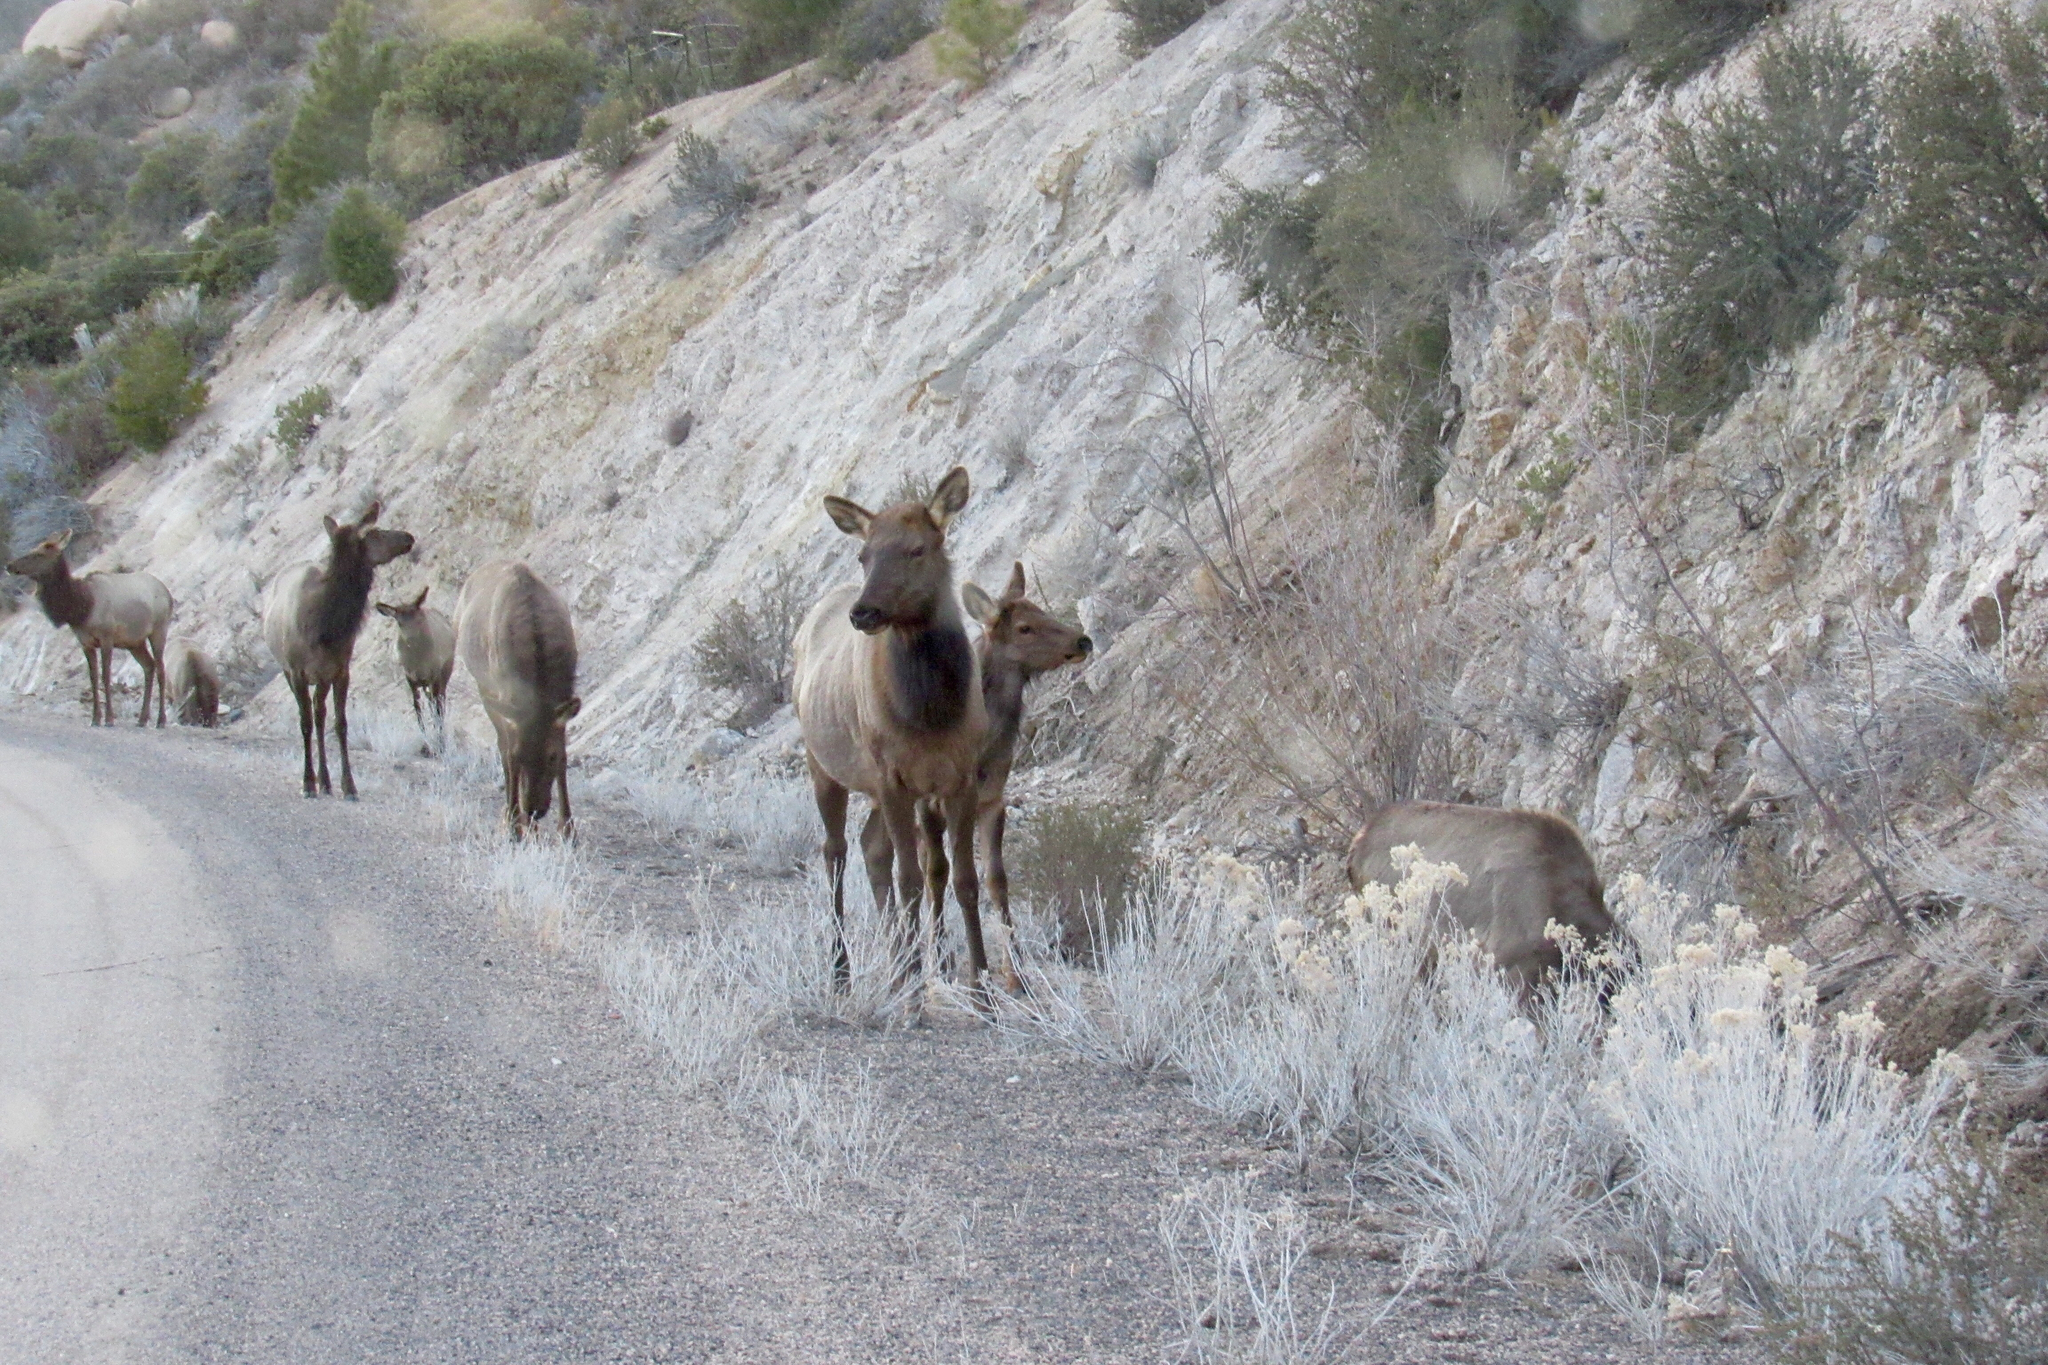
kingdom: Animalia
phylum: Chordata
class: Mammalia
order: Artiodactyla
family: Cervidae
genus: Cervus
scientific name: Cervus elaphus
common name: Red deer
